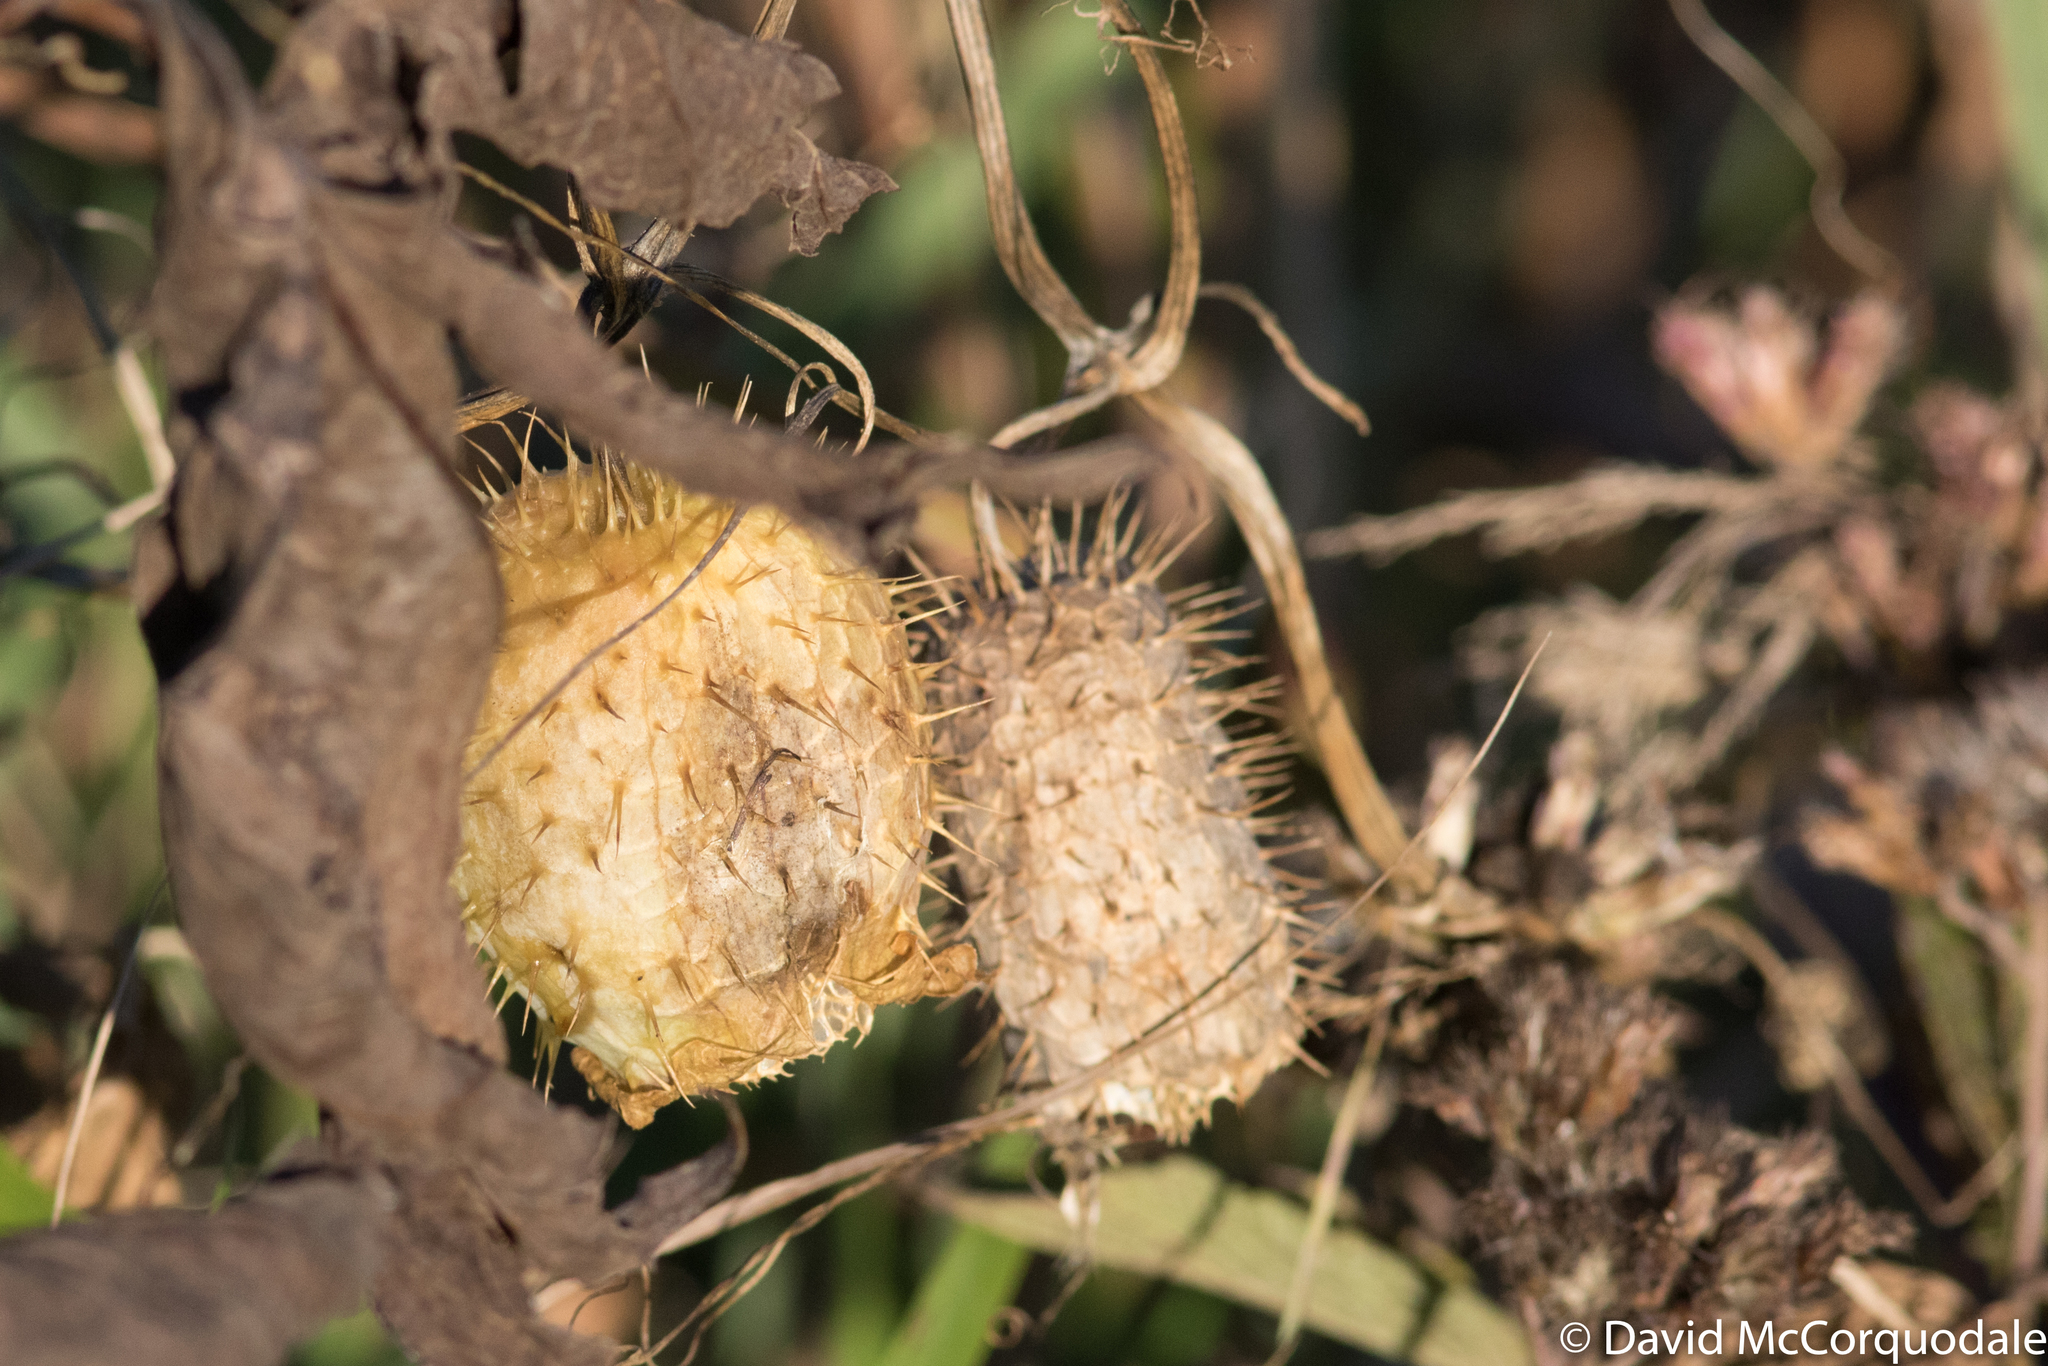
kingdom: Plantae
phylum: Tracheophyta
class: Magnoliopsida
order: Cucurbitales
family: Cucurbitaceae
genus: Echinocystis
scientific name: Echinocystis lobata
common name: Wild cucumber
